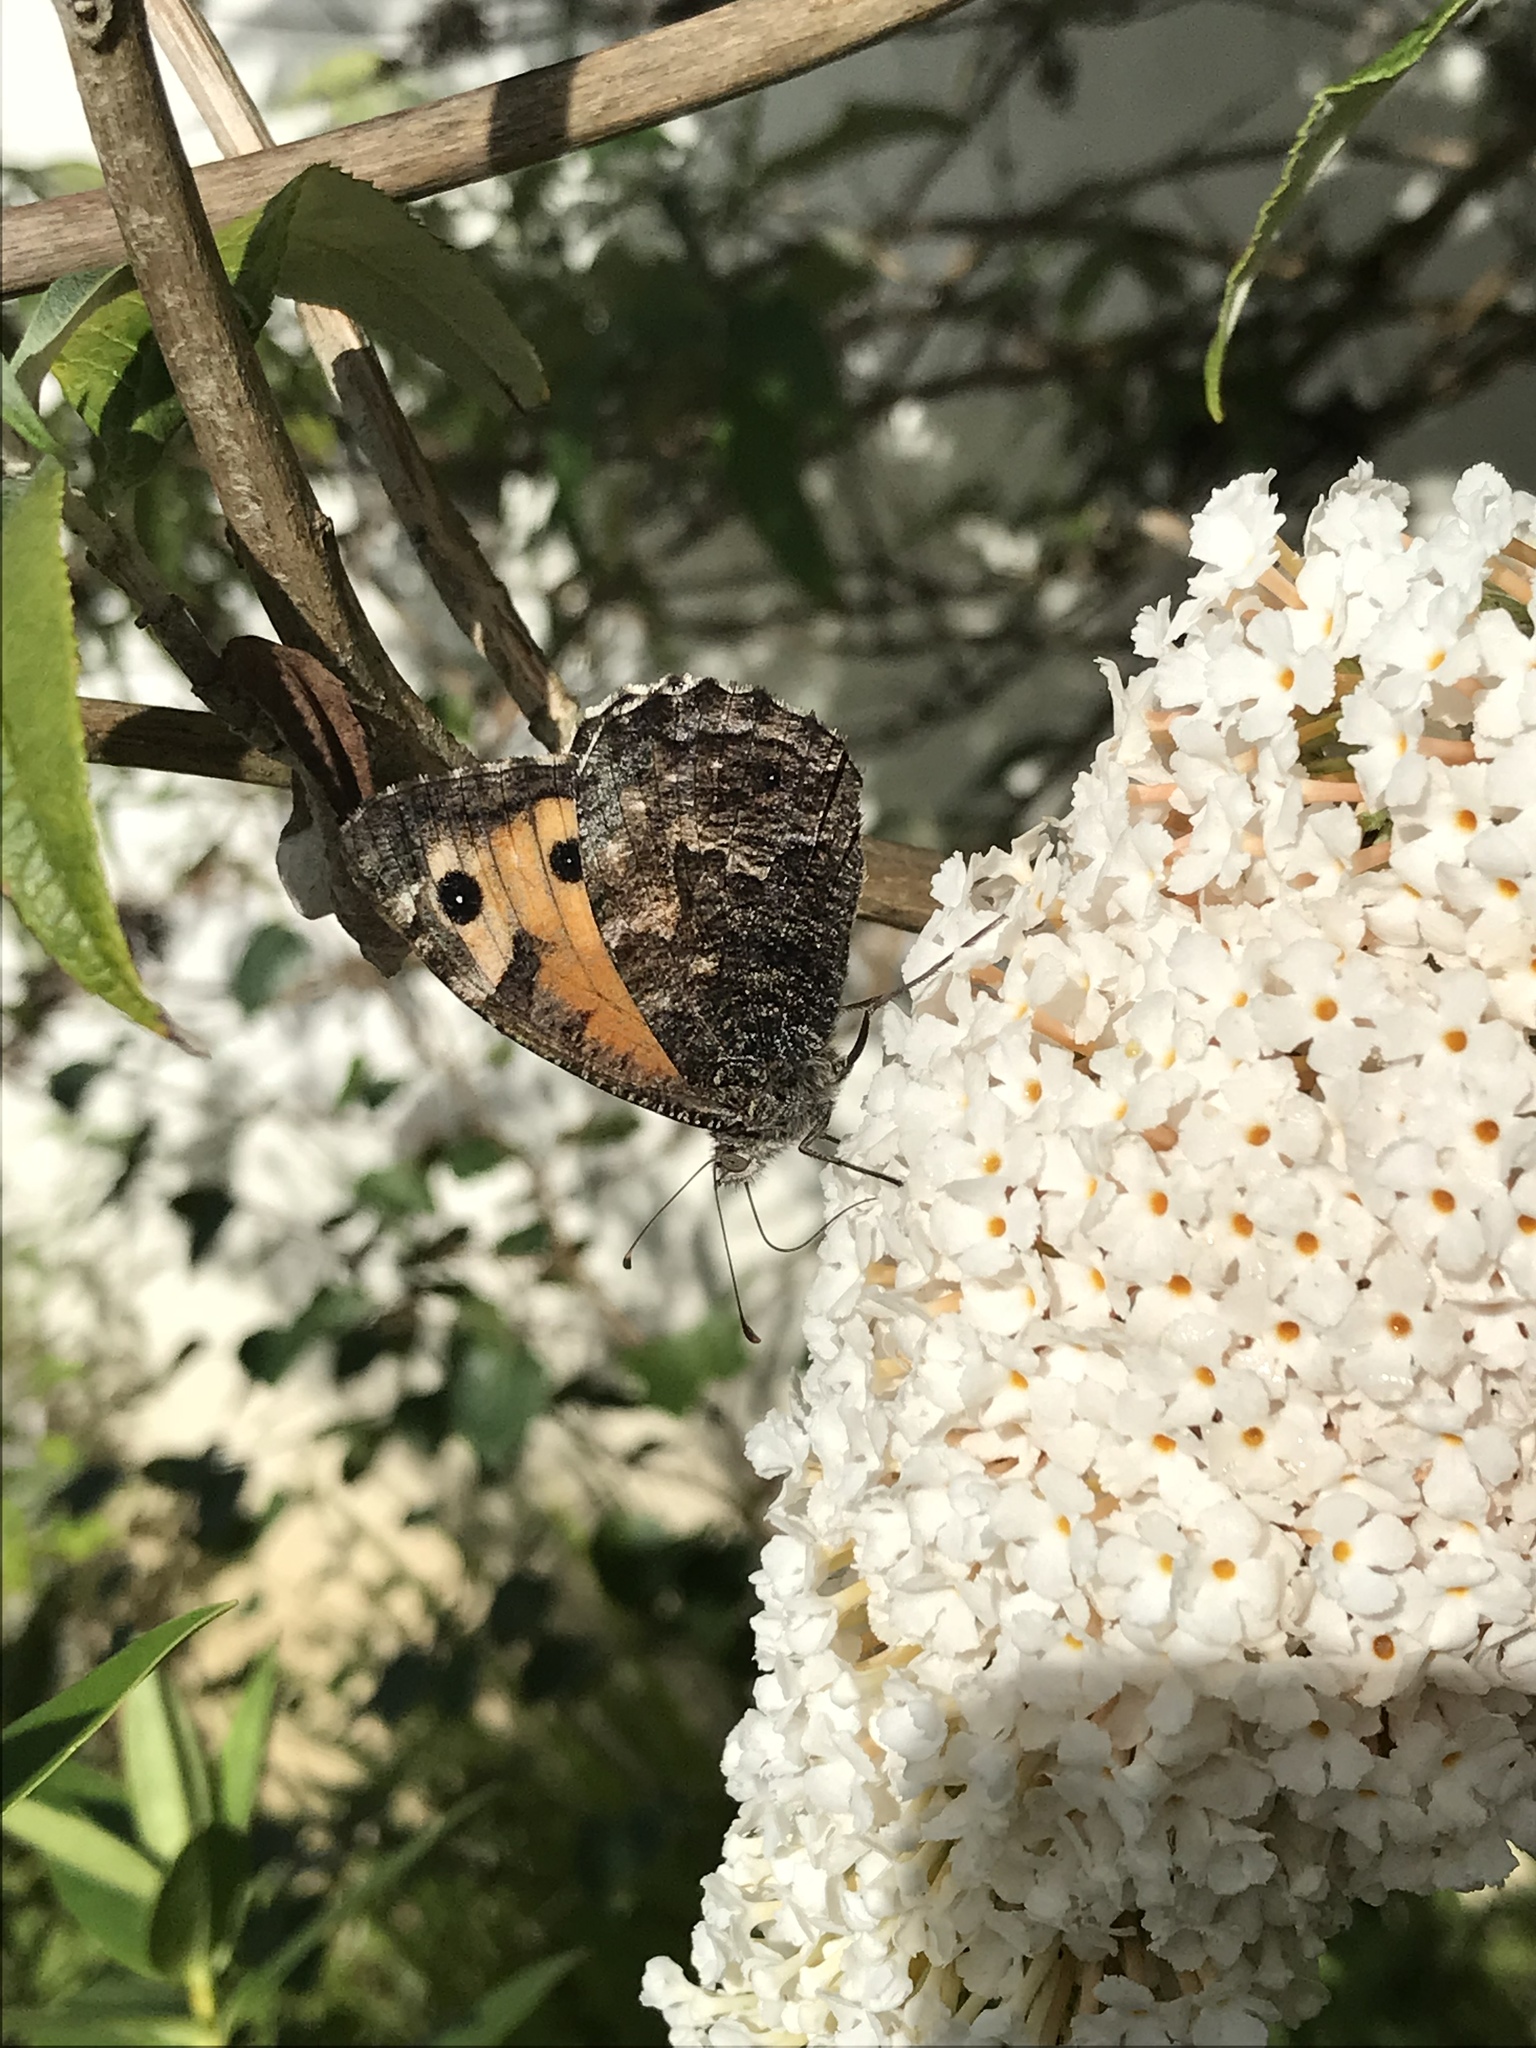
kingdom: Animalia
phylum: Arthropoda
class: Insecta
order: Lepidoptera
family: Nymphalidae
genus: Hipparchia
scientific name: Hipparchia semele
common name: Grayling
